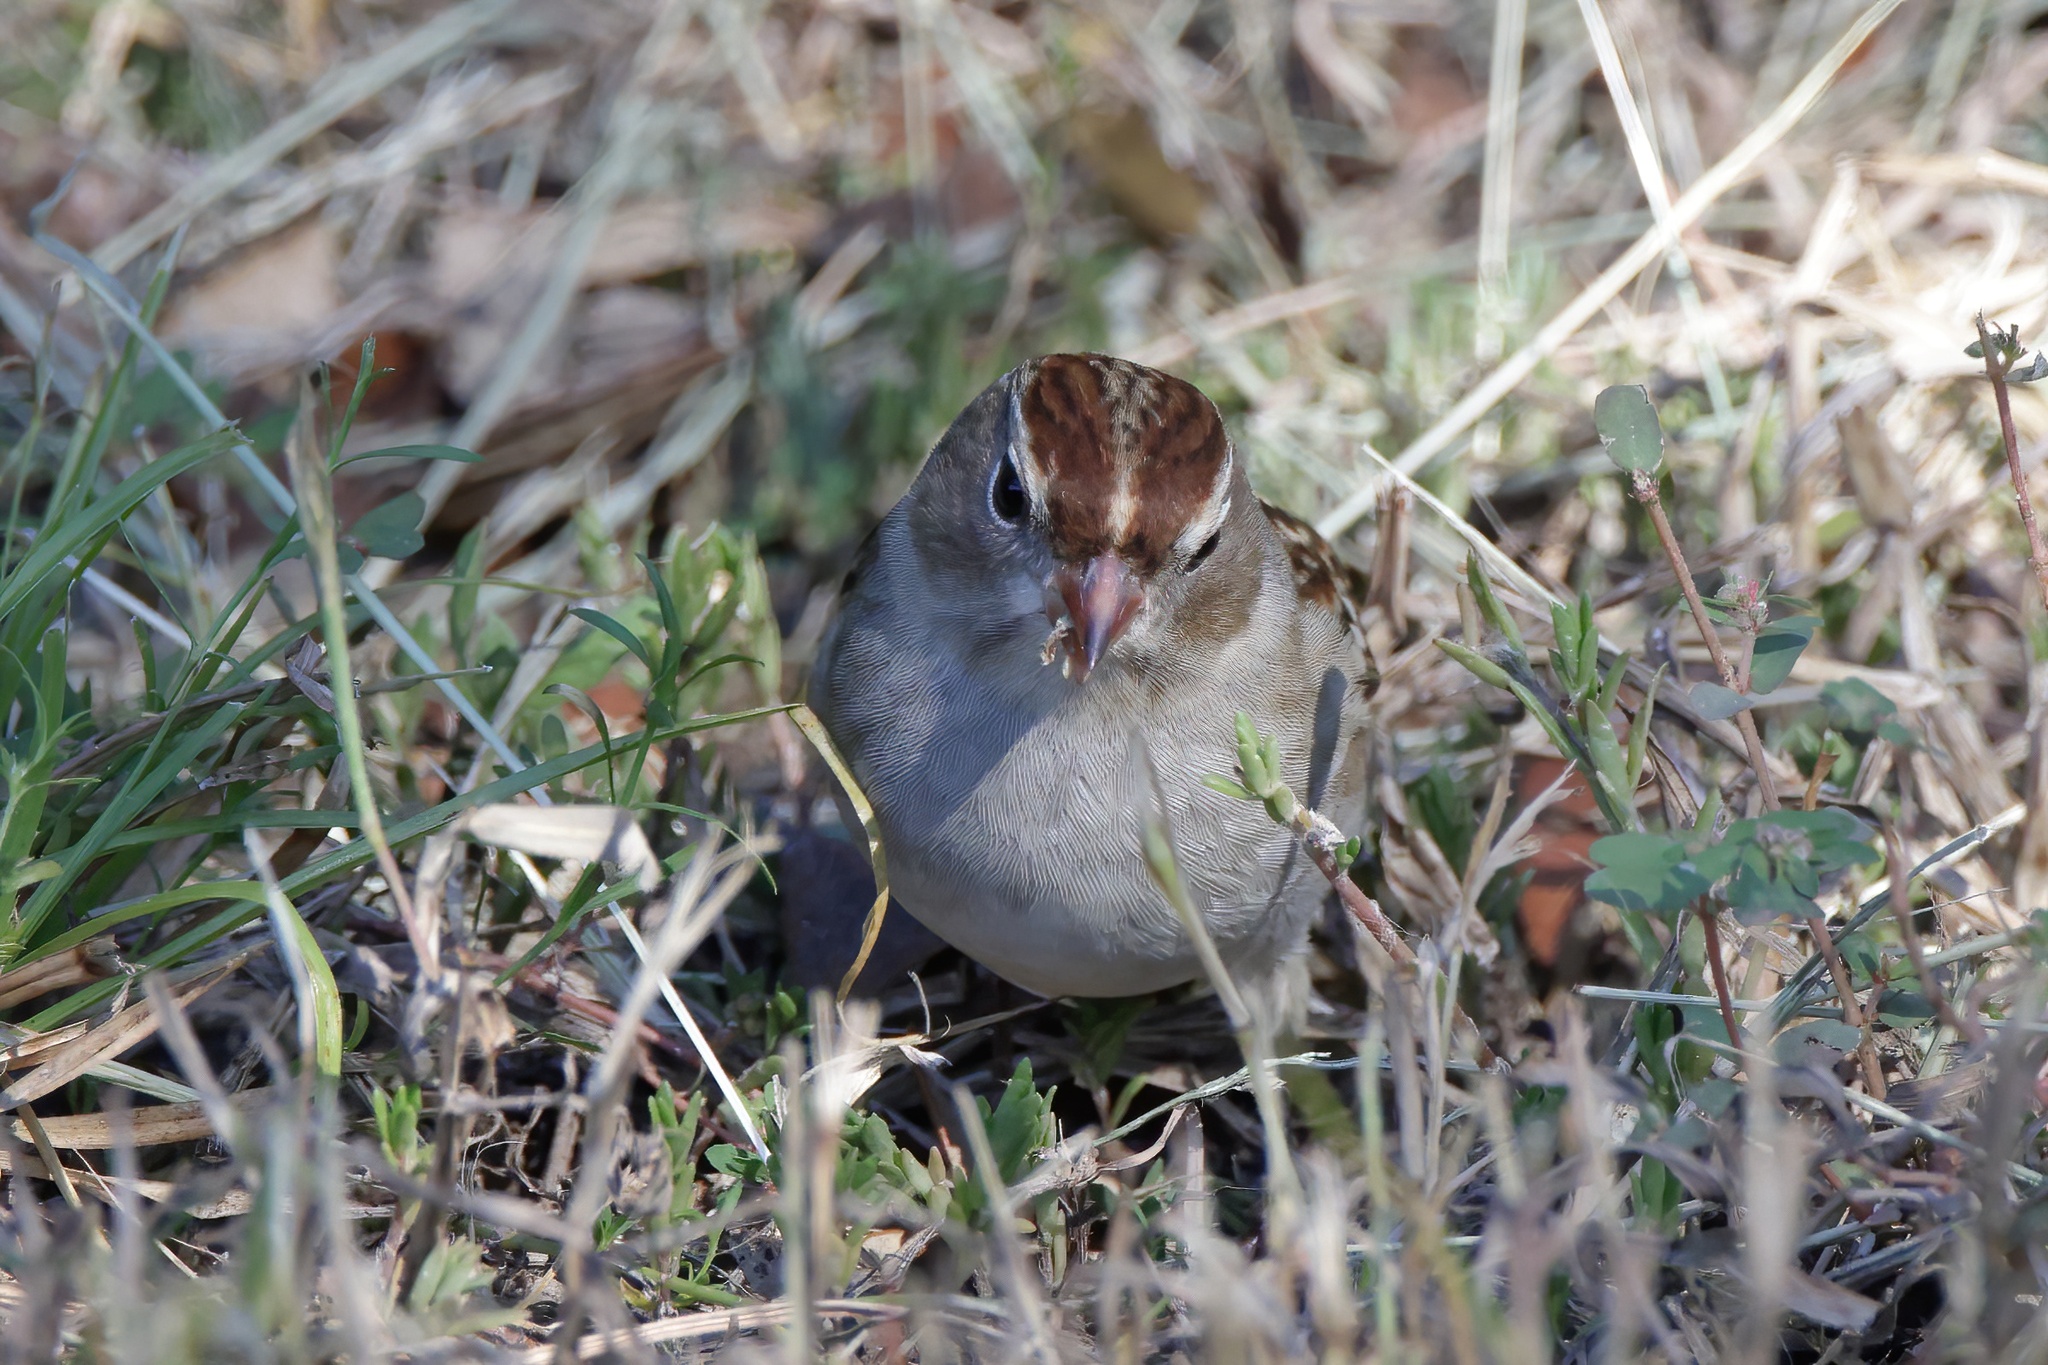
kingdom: Animalia
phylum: Chordata
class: Aves
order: Passeriformes
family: Passerellidae
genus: Zonotrichia
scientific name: Zonotrichia leucophrys
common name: White-crowned sparrow
